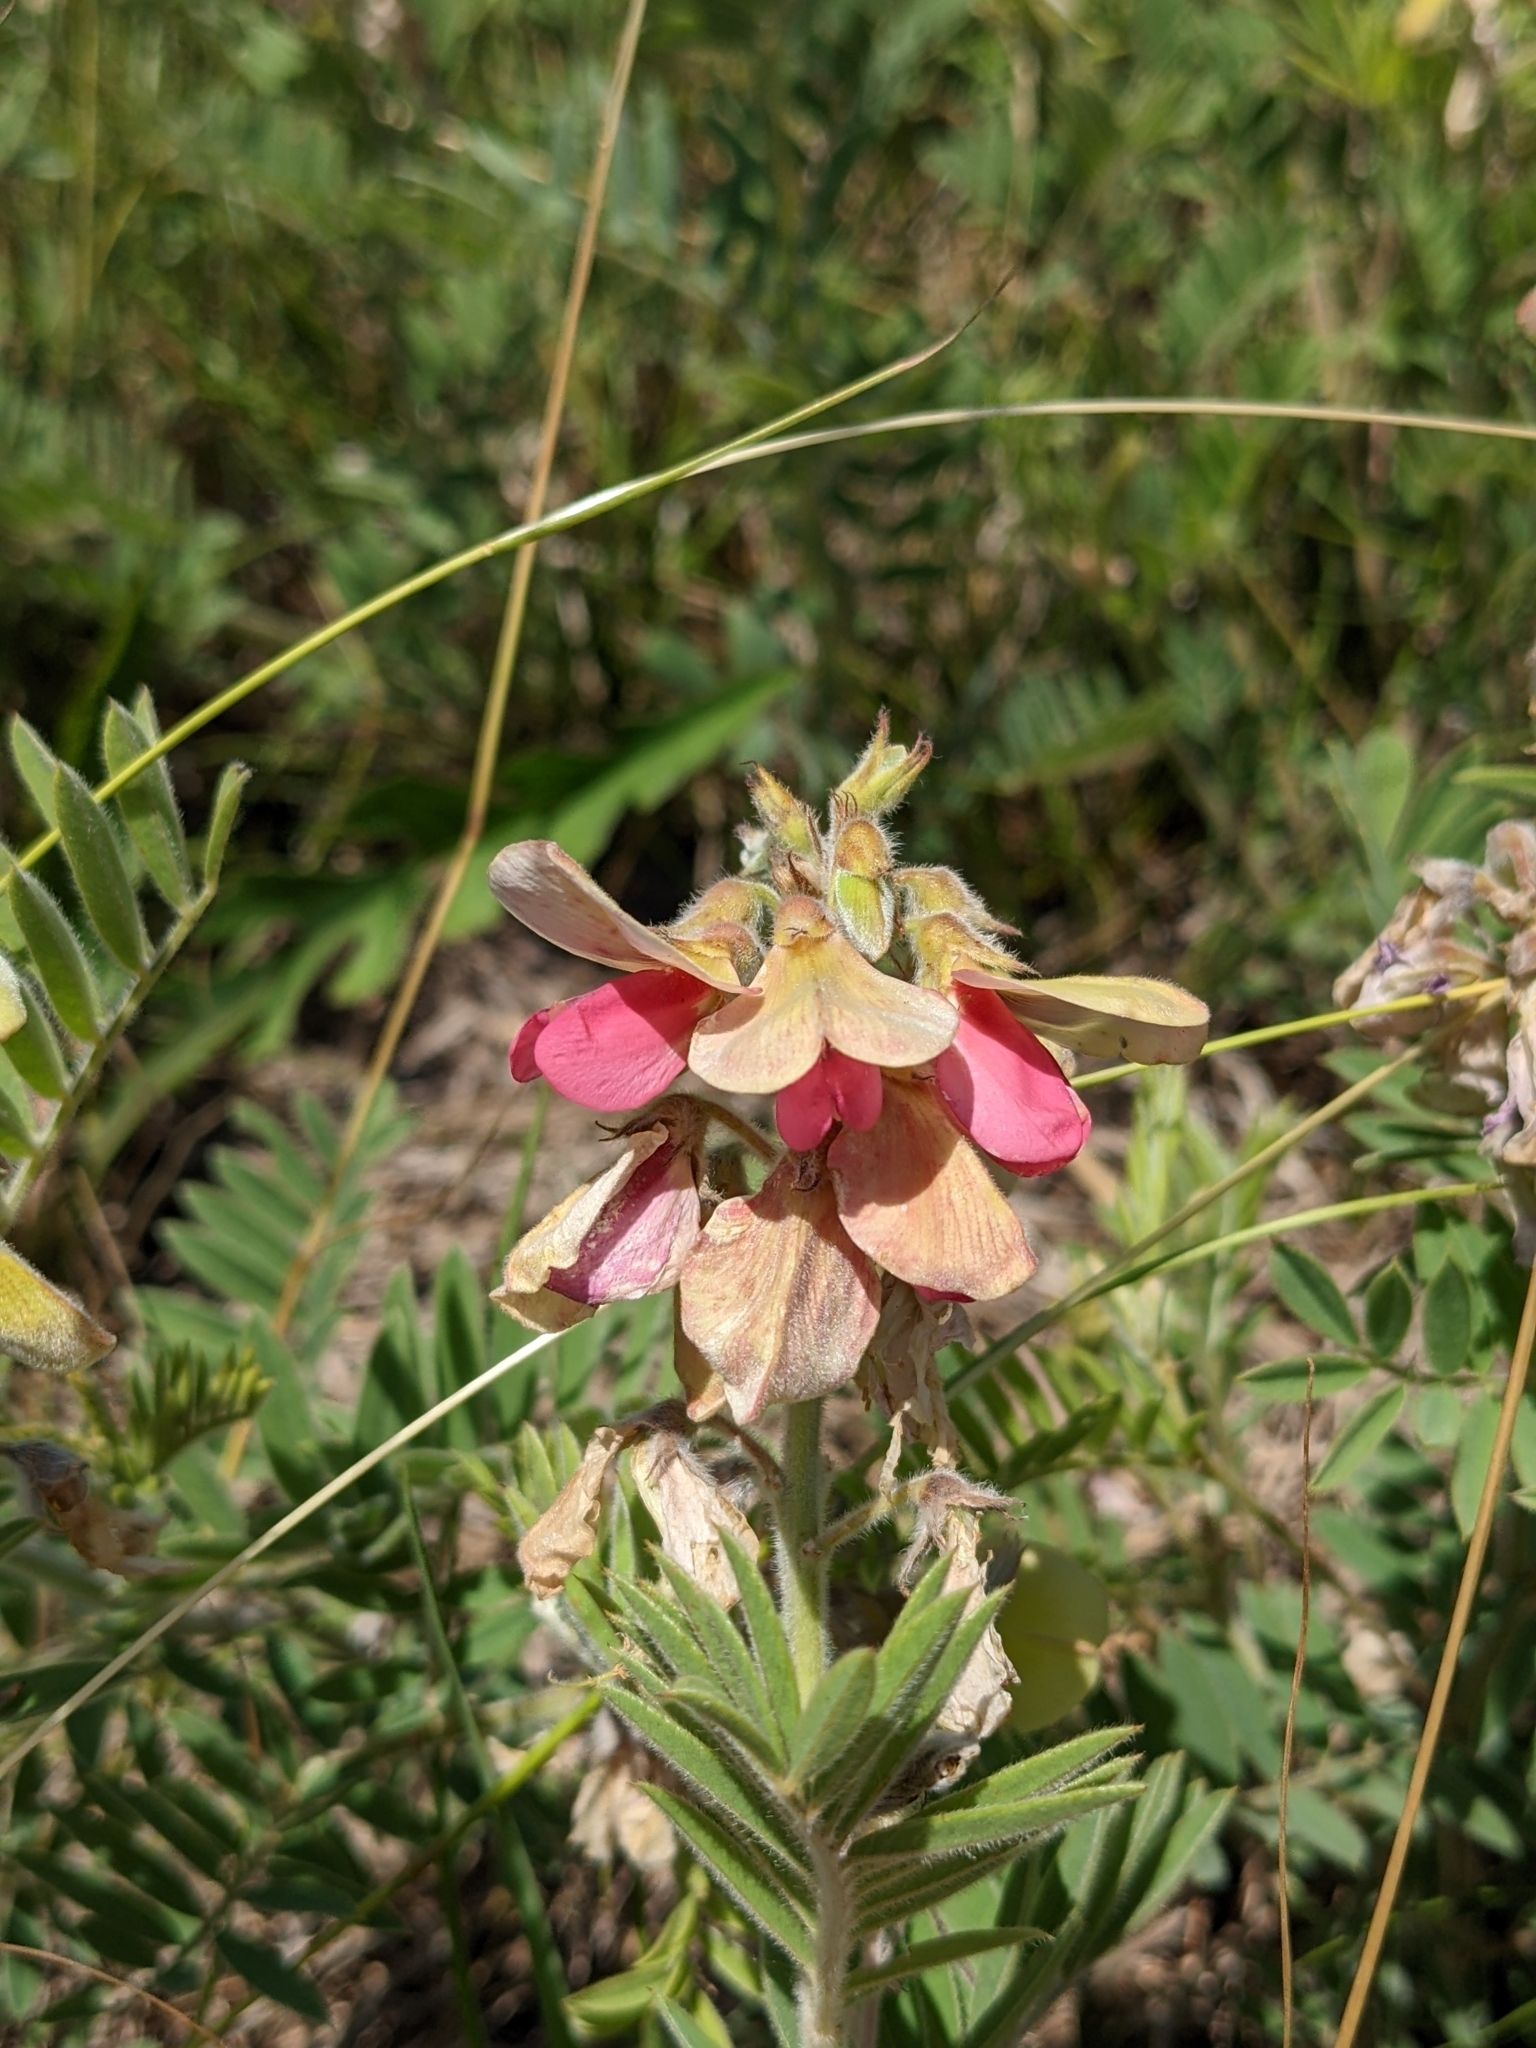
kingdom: Plantae
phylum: Tracheophyta
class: Magnoliopsida
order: Fabales
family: Fabaceae
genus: Tephrosia
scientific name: Tephrosia virginiana
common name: Rabbit-pea
